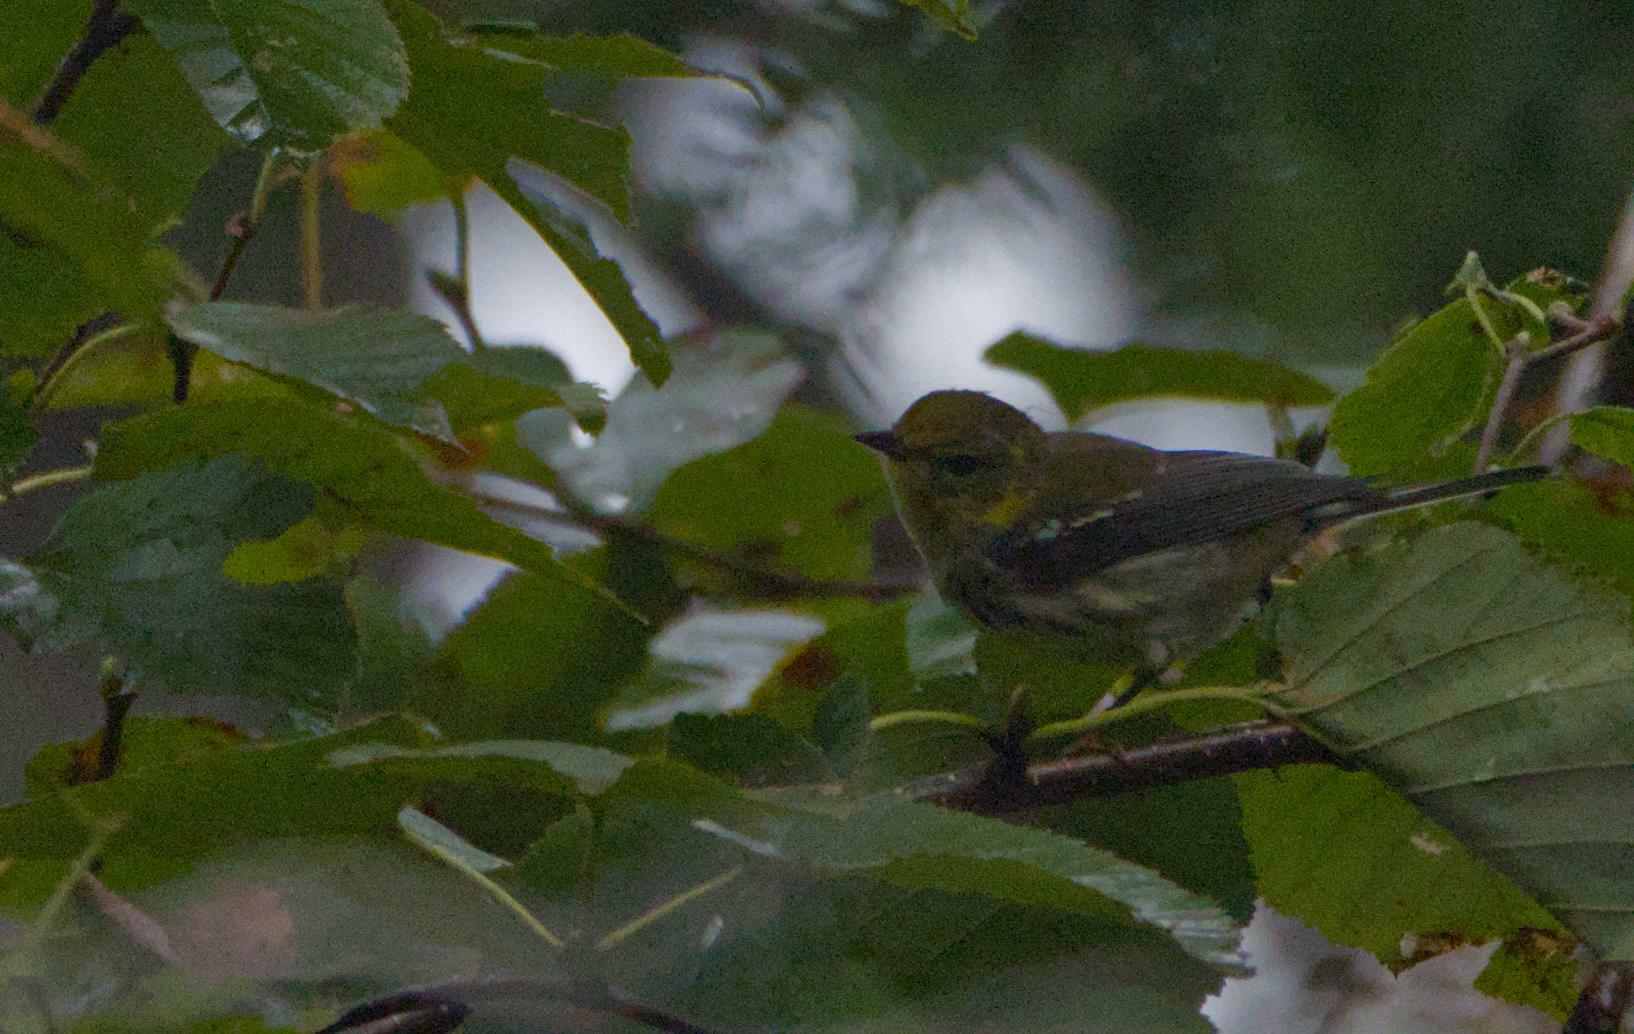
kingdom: Animalia
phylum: Chordata
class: Aves
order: Passeriformes
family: Parulidae
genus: Setophaga
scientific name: Setophaga virens
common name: Black-throated green warbler
